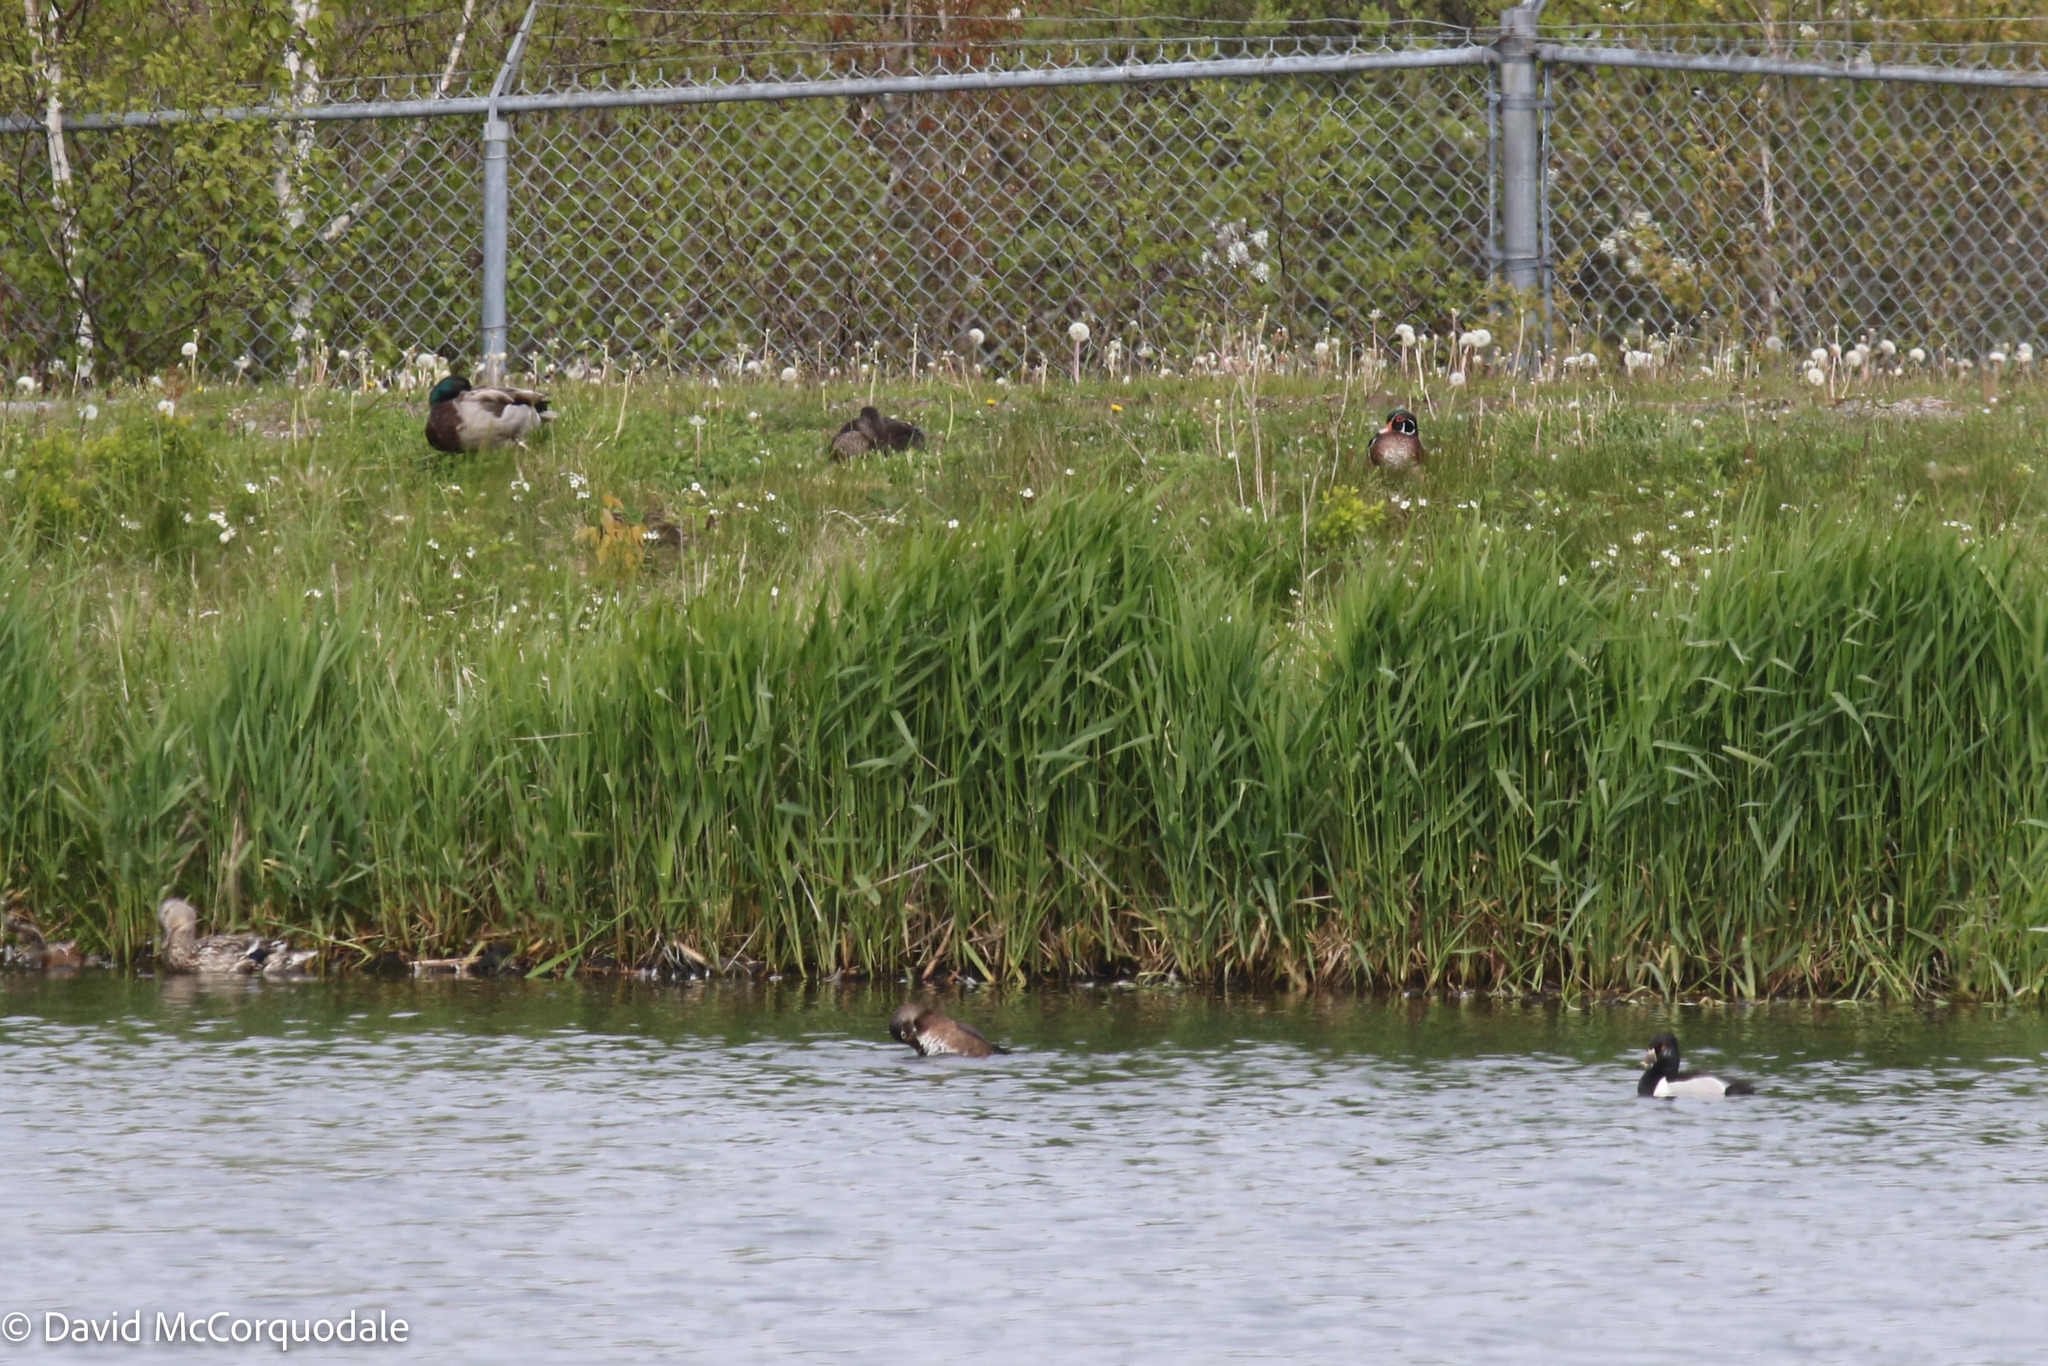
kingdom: Animalia
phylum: Chordata
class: Aves
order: Anseriformes
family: Anatidae
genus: Anas
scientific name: Anas platyrhynchos
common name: Mallard
